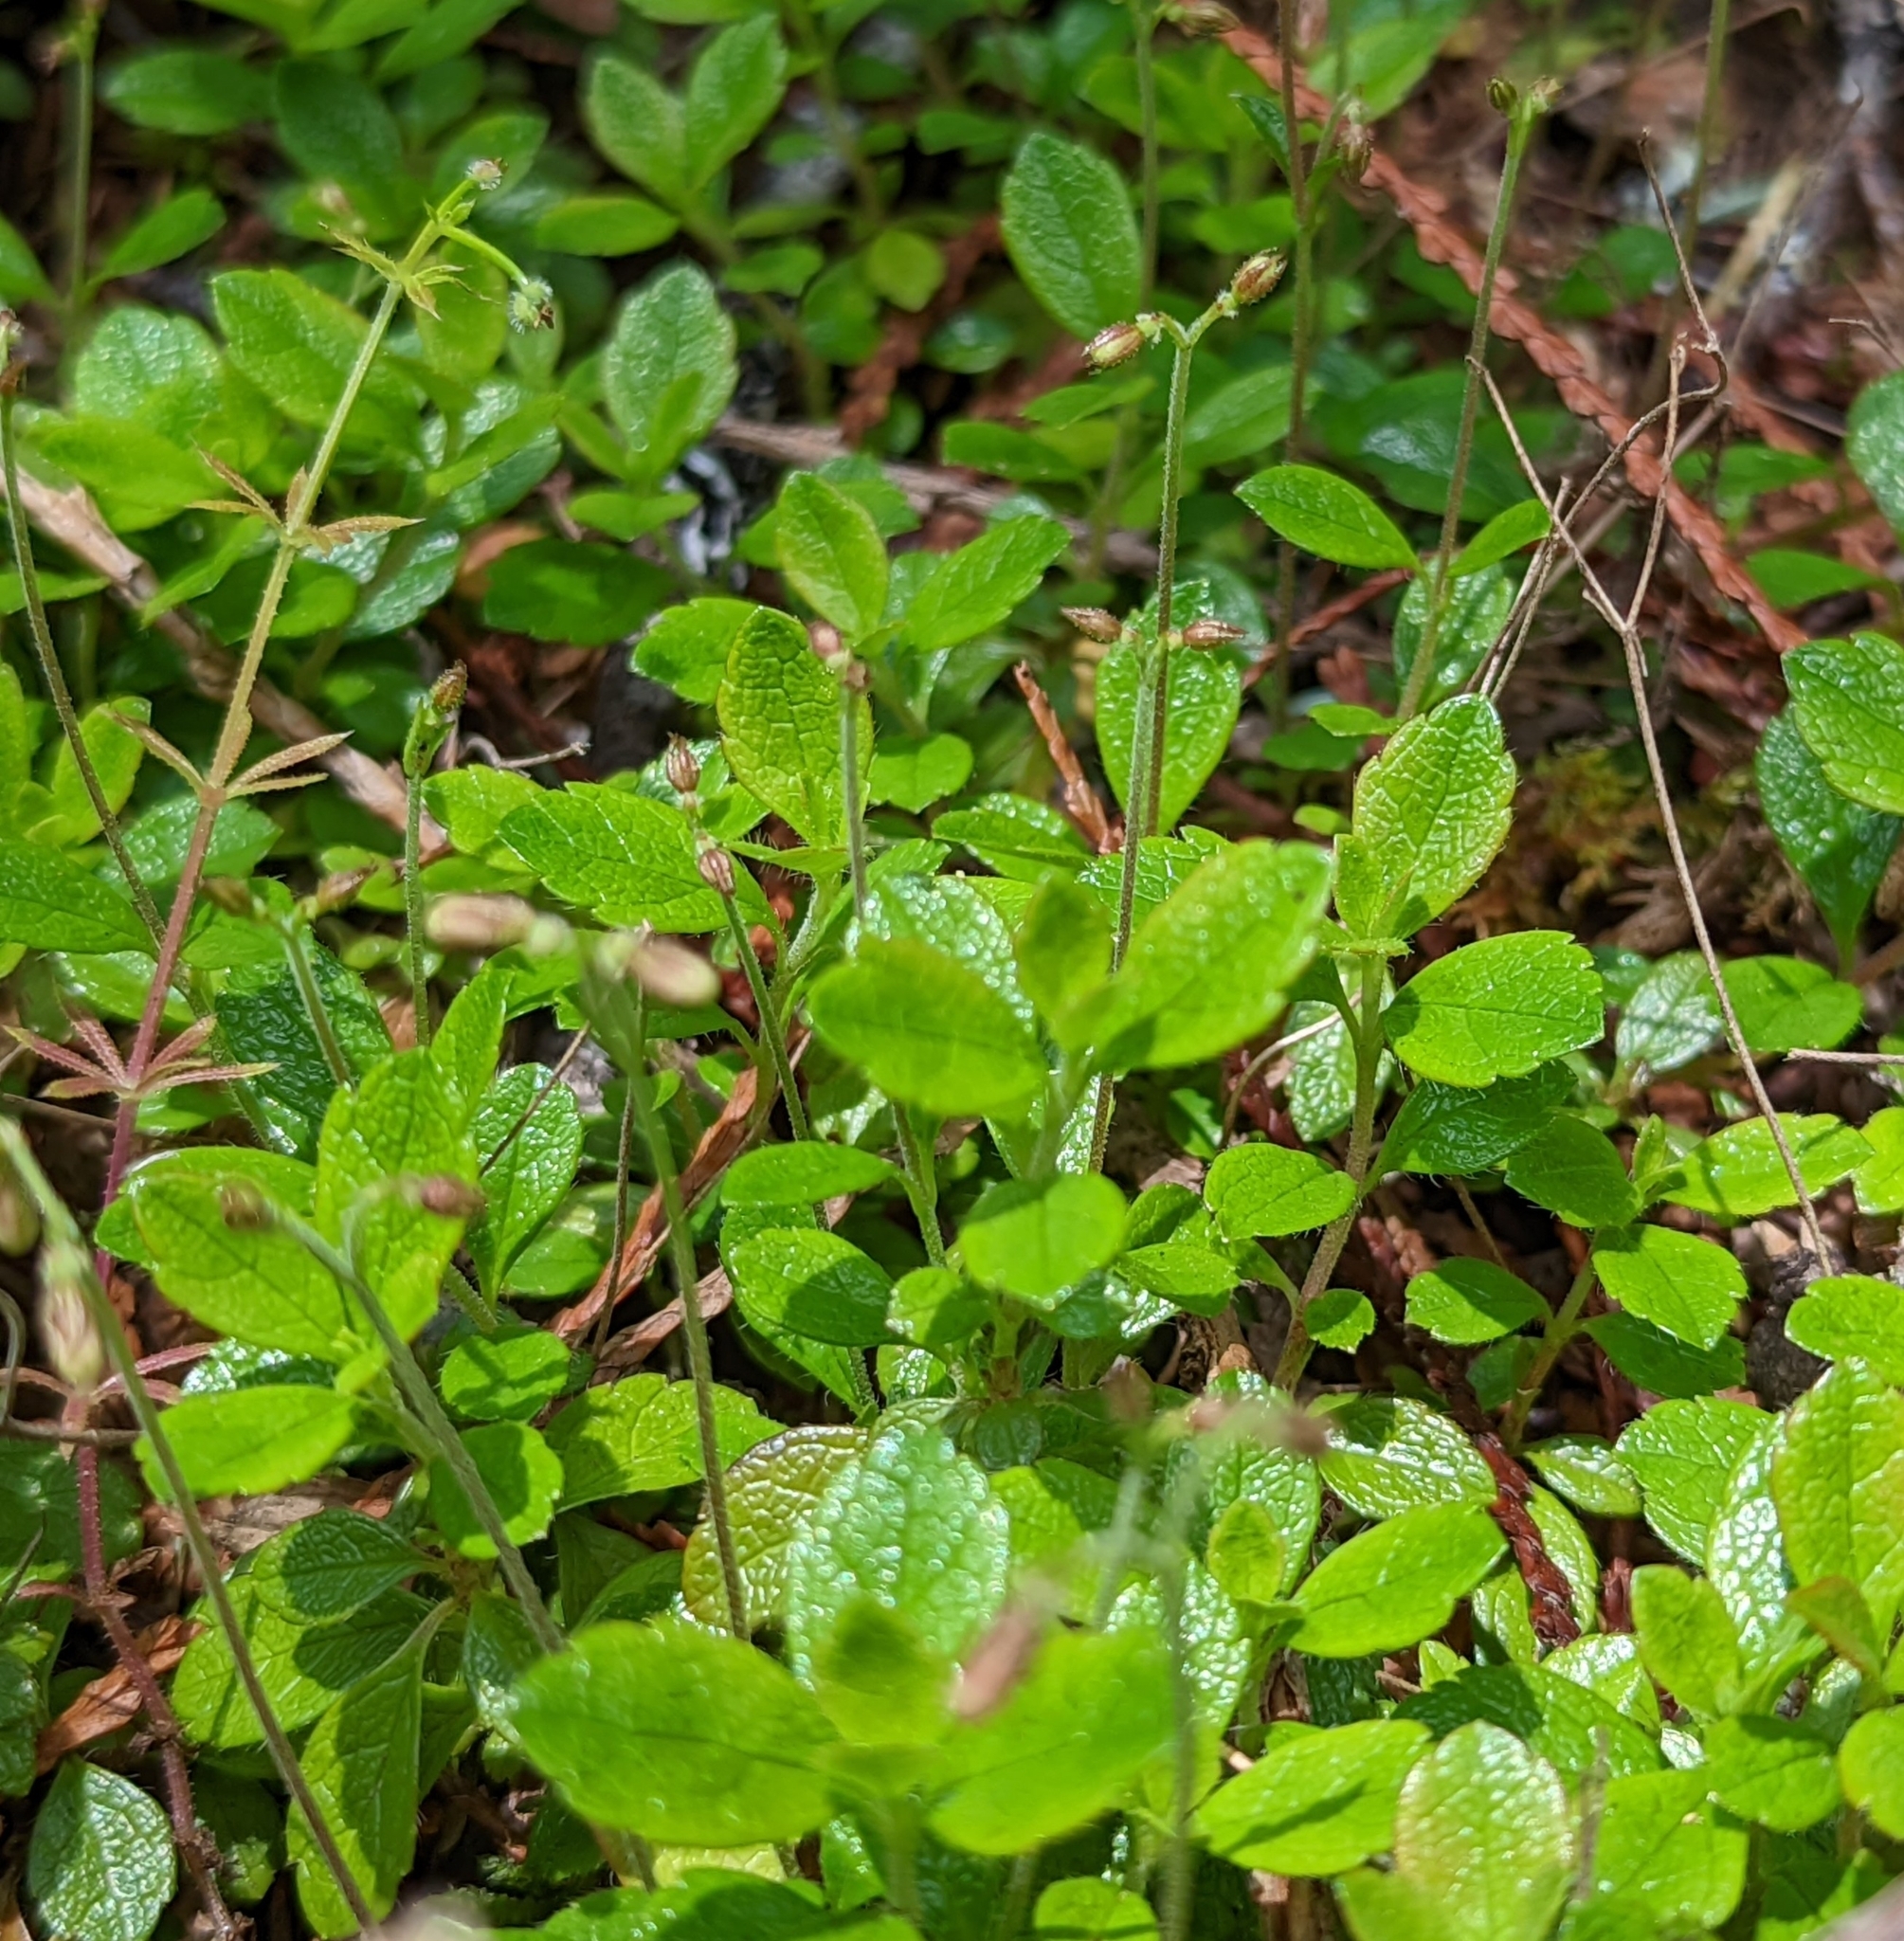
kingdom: Plantae
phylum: Tracheophyta
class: Magnoliopsida
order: Dipsacales
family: Caprifoliaceae
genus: Linnaea
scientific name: Linnaea borealis
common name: Twinflower
